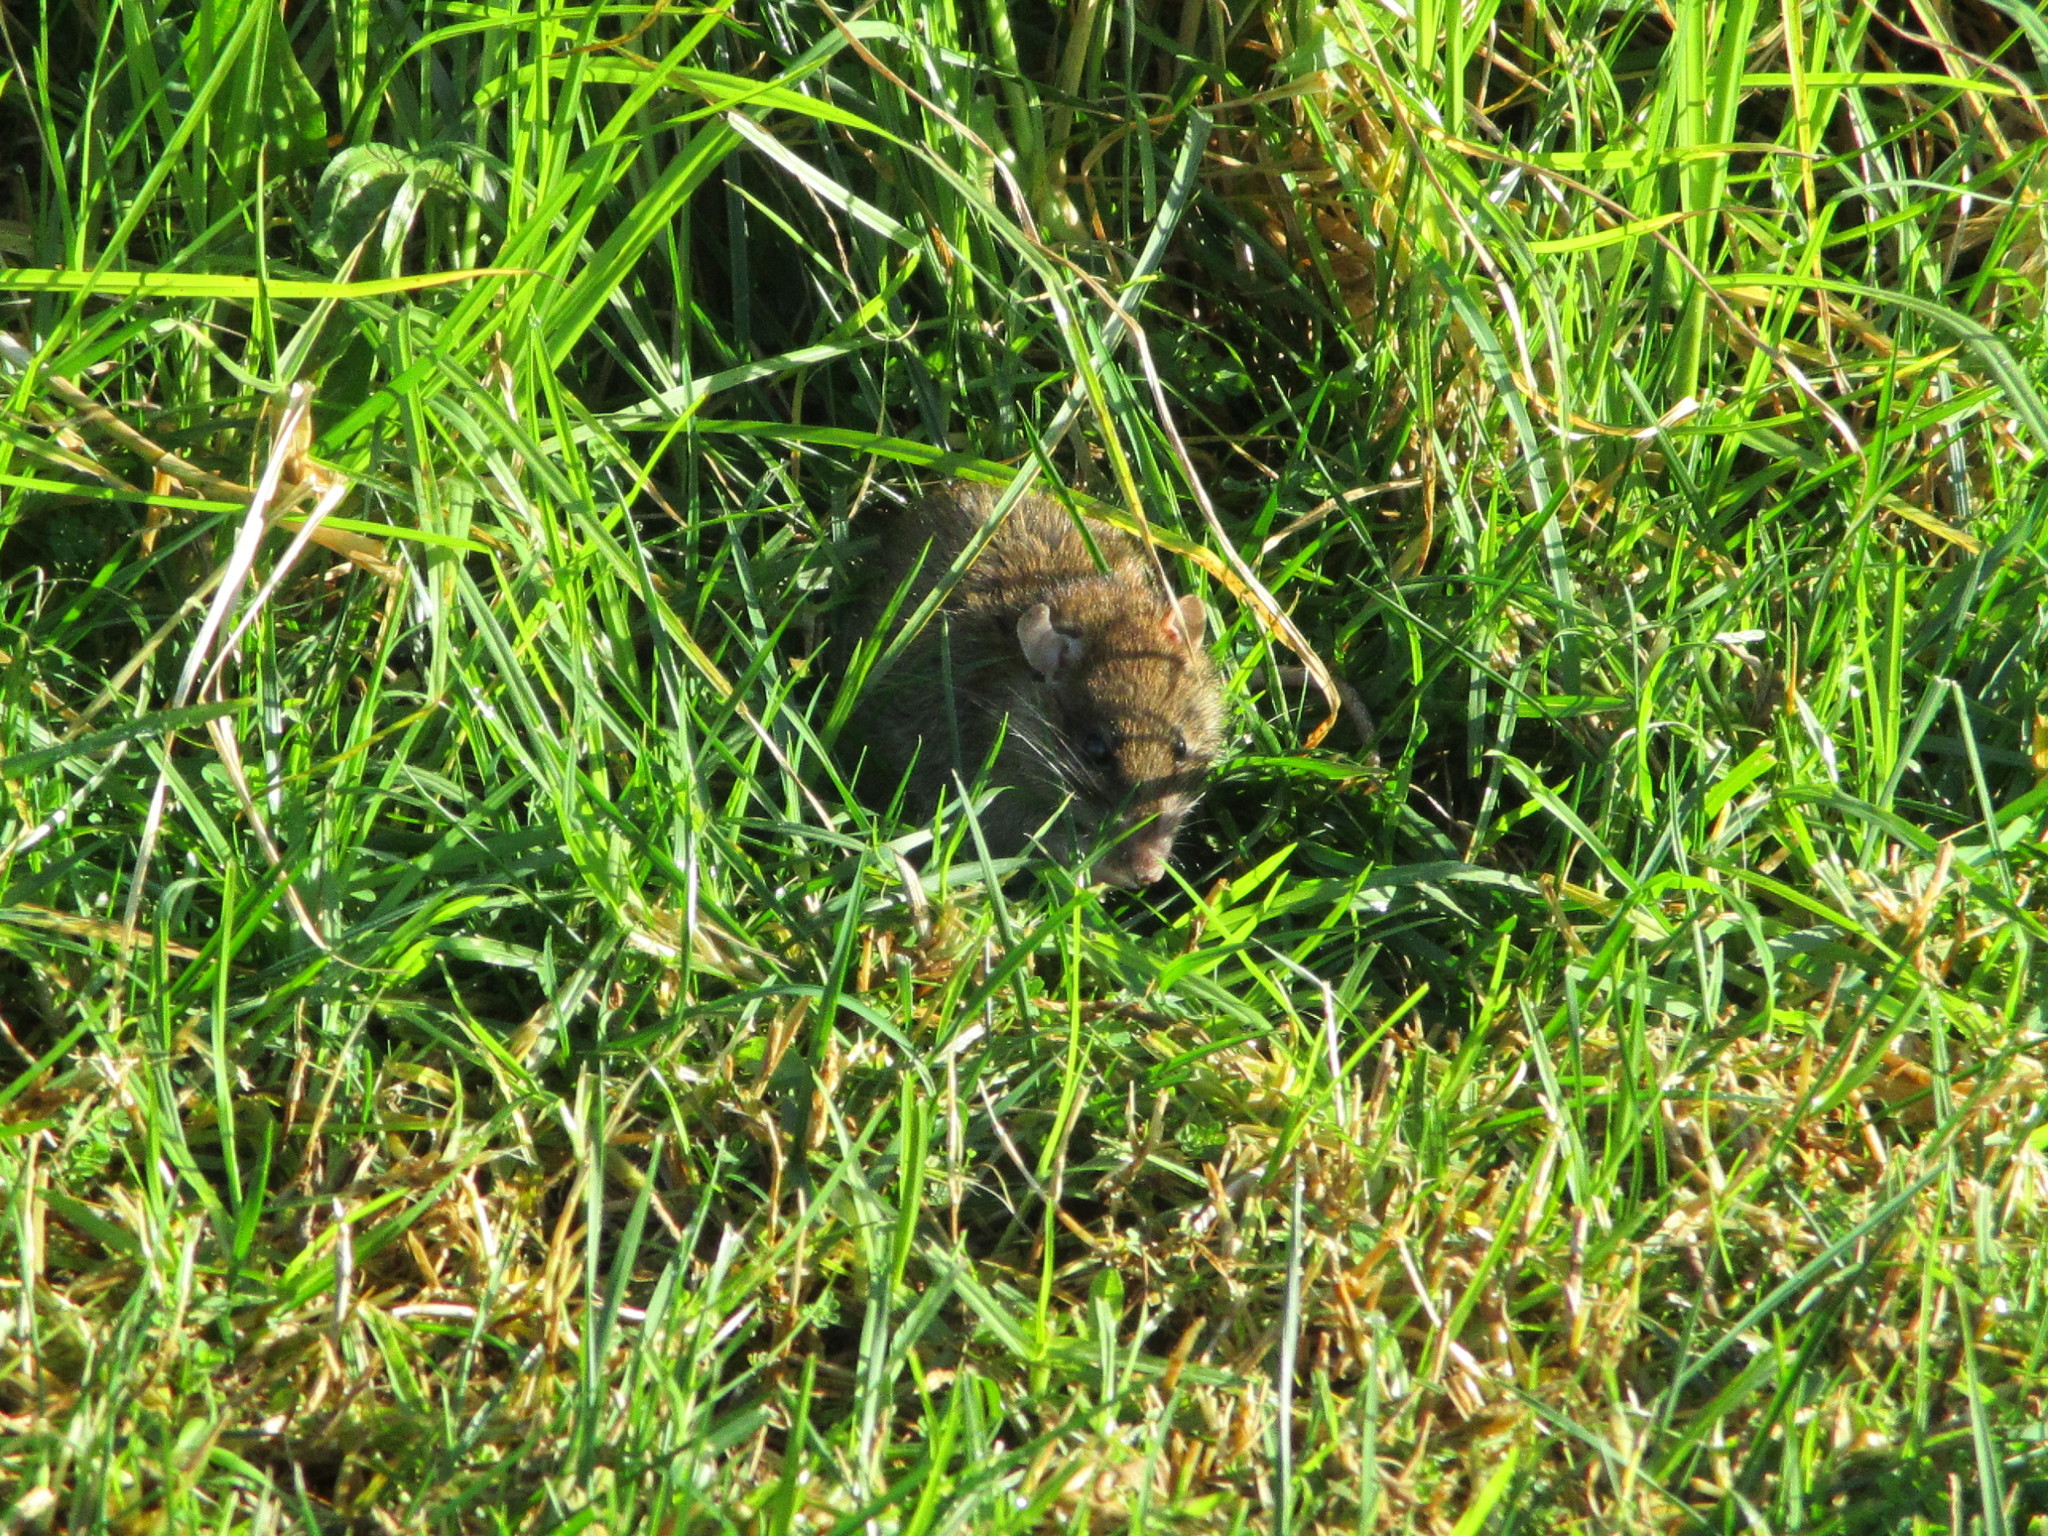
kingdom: Animalia
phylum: Chordata
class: Mammalia
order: Rodentia
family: Muridae
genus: Rattus
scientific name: Rattus norvegicus
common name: Brown rat
